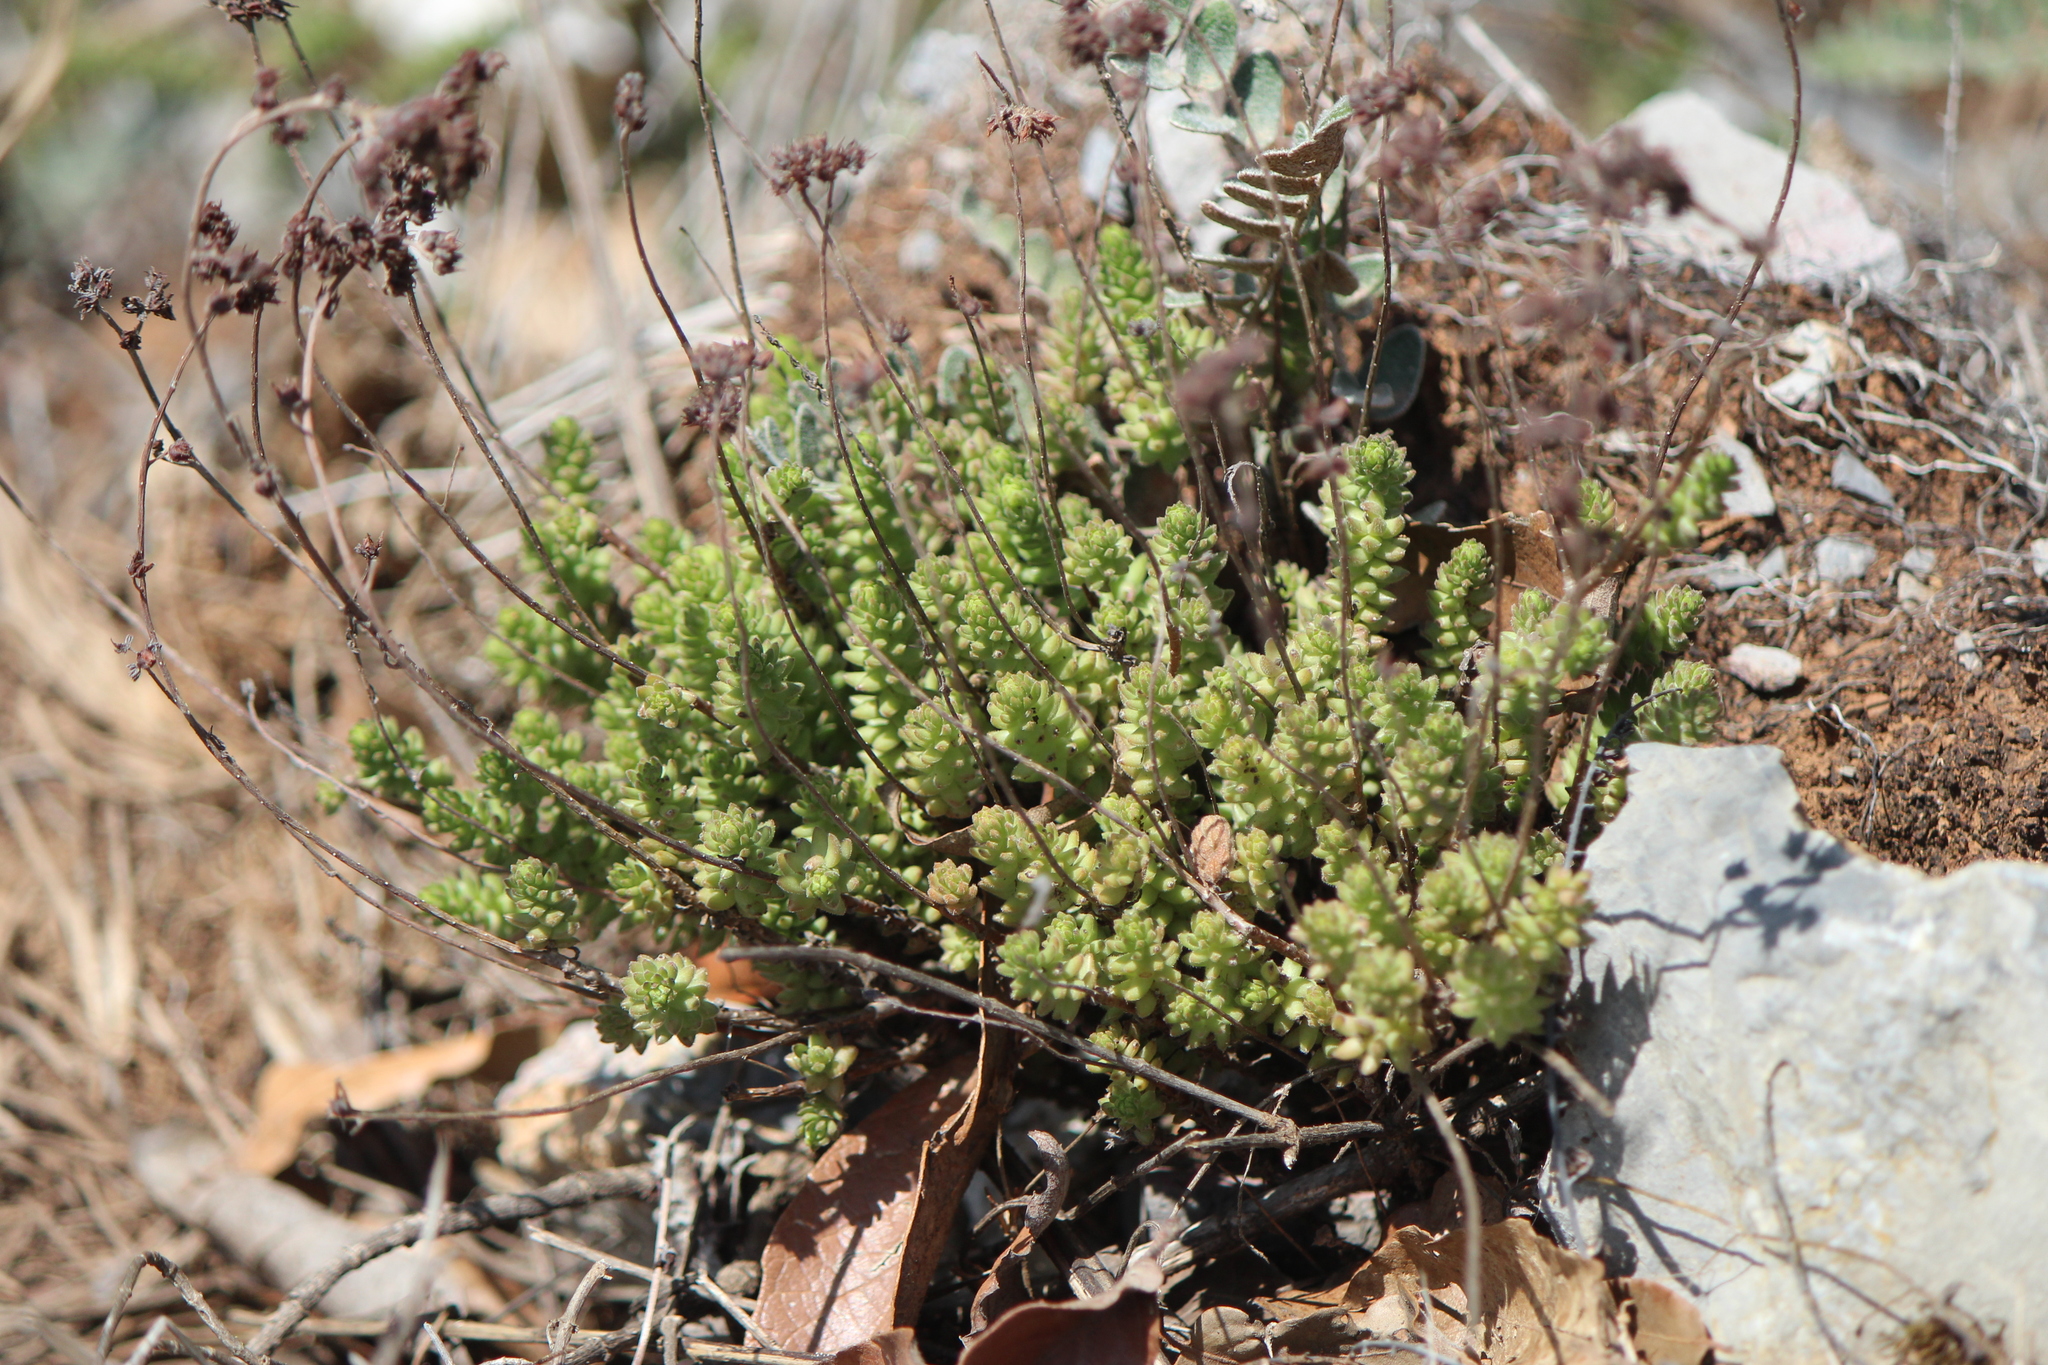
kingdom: Plantae
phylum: Tracheophyta
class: Magnoliopsida
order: Saxifragales
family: Crassulaceae
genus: Sedum
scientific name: Sedum moranense
